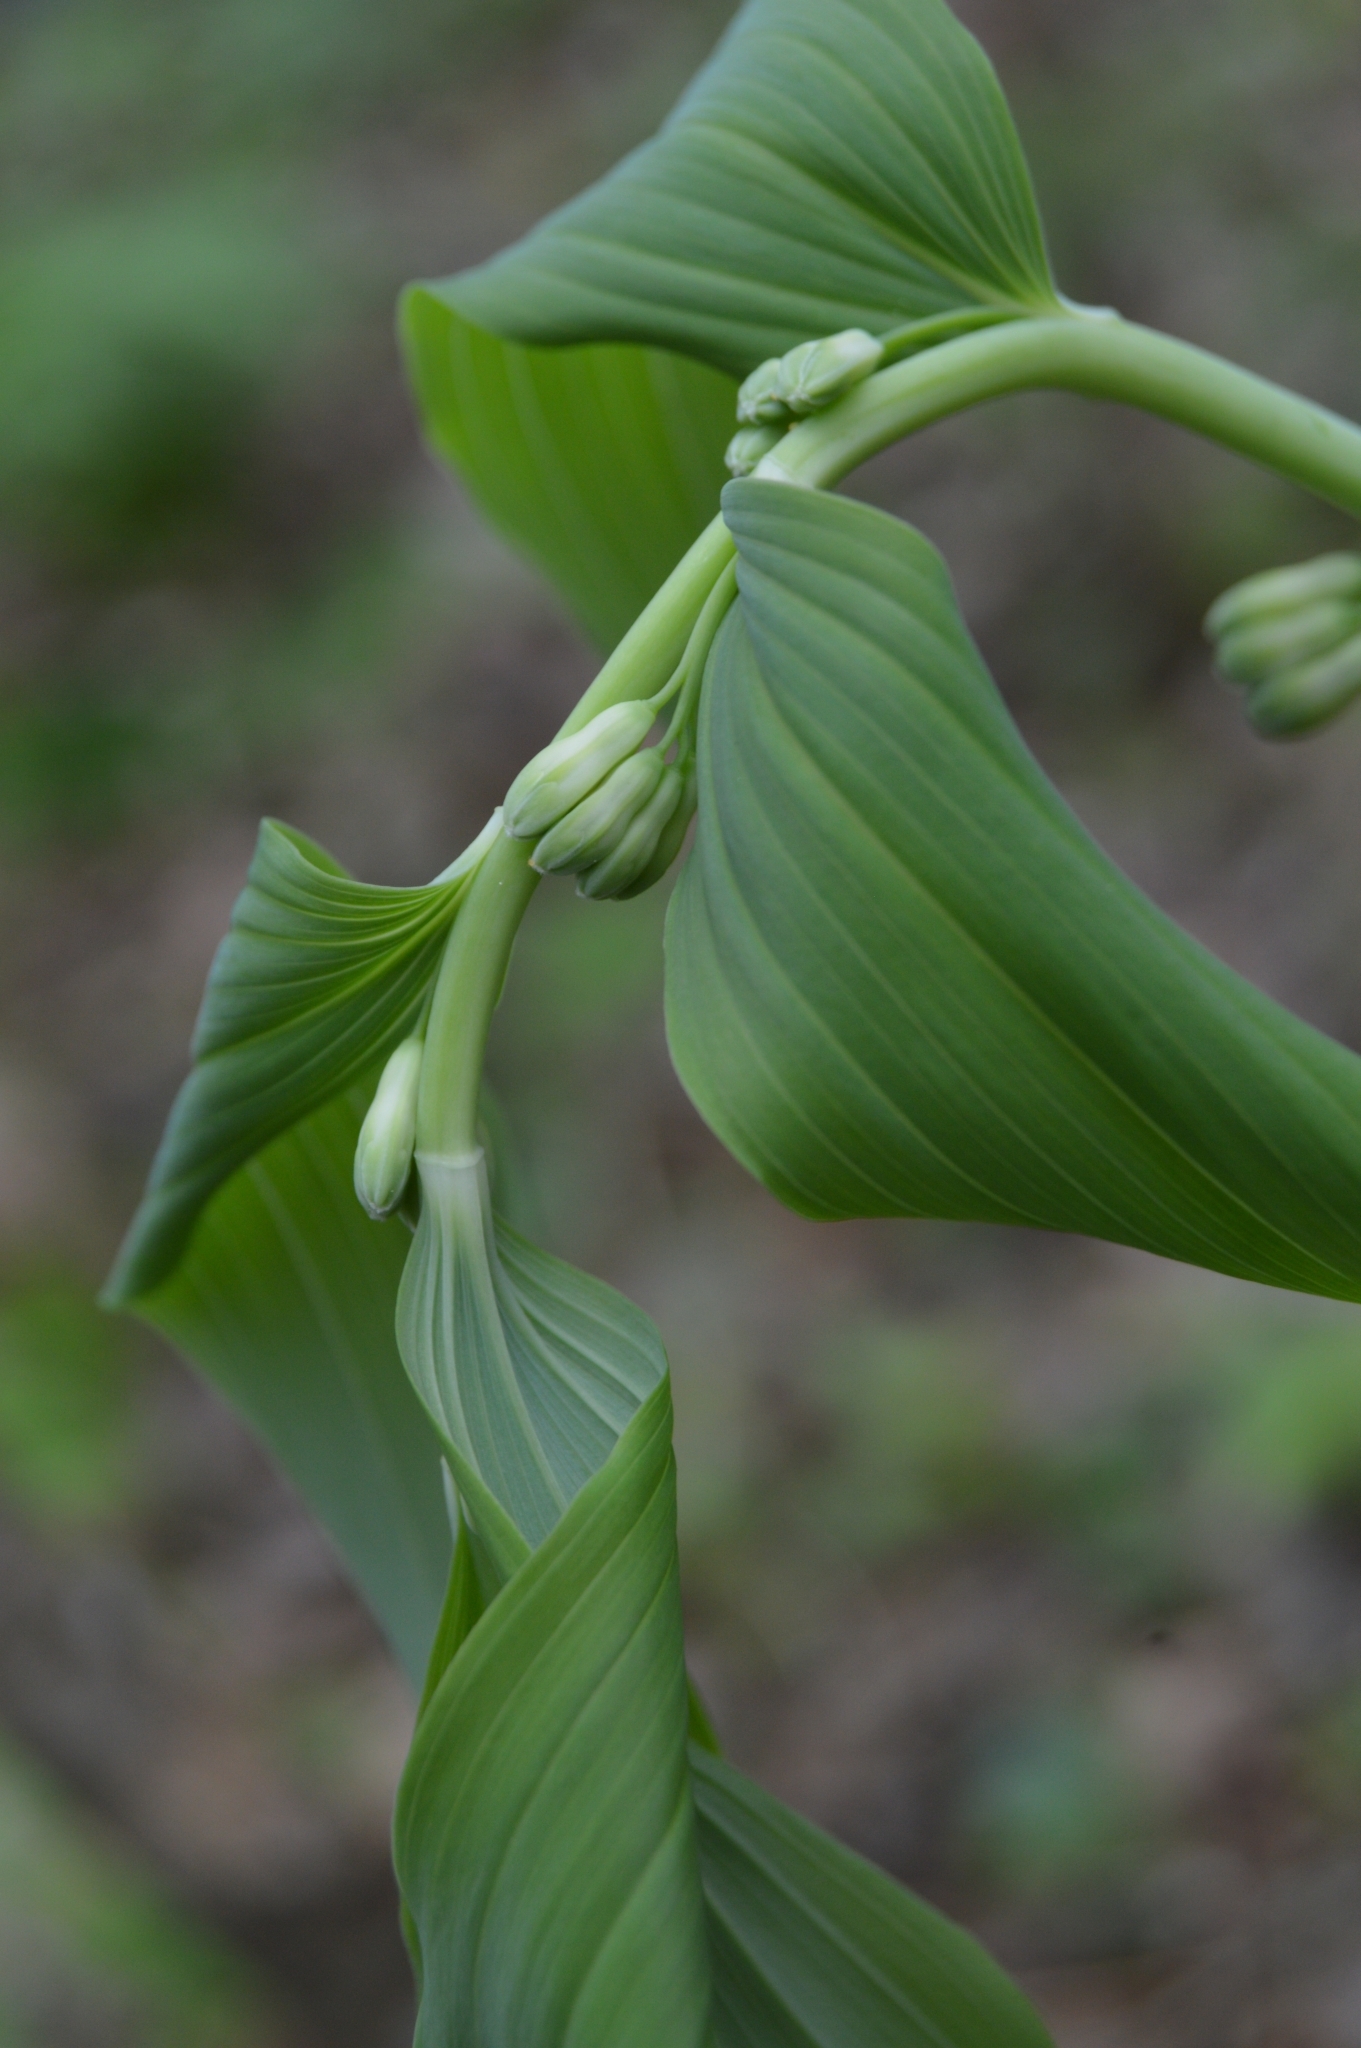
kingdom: Plantae
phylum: Tracheophyta
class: Liliopsida
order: Asparagales
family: Asparagaceae
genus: Polygonatum
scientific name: Polygonatum multiflorum
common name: Solomon's-seal
